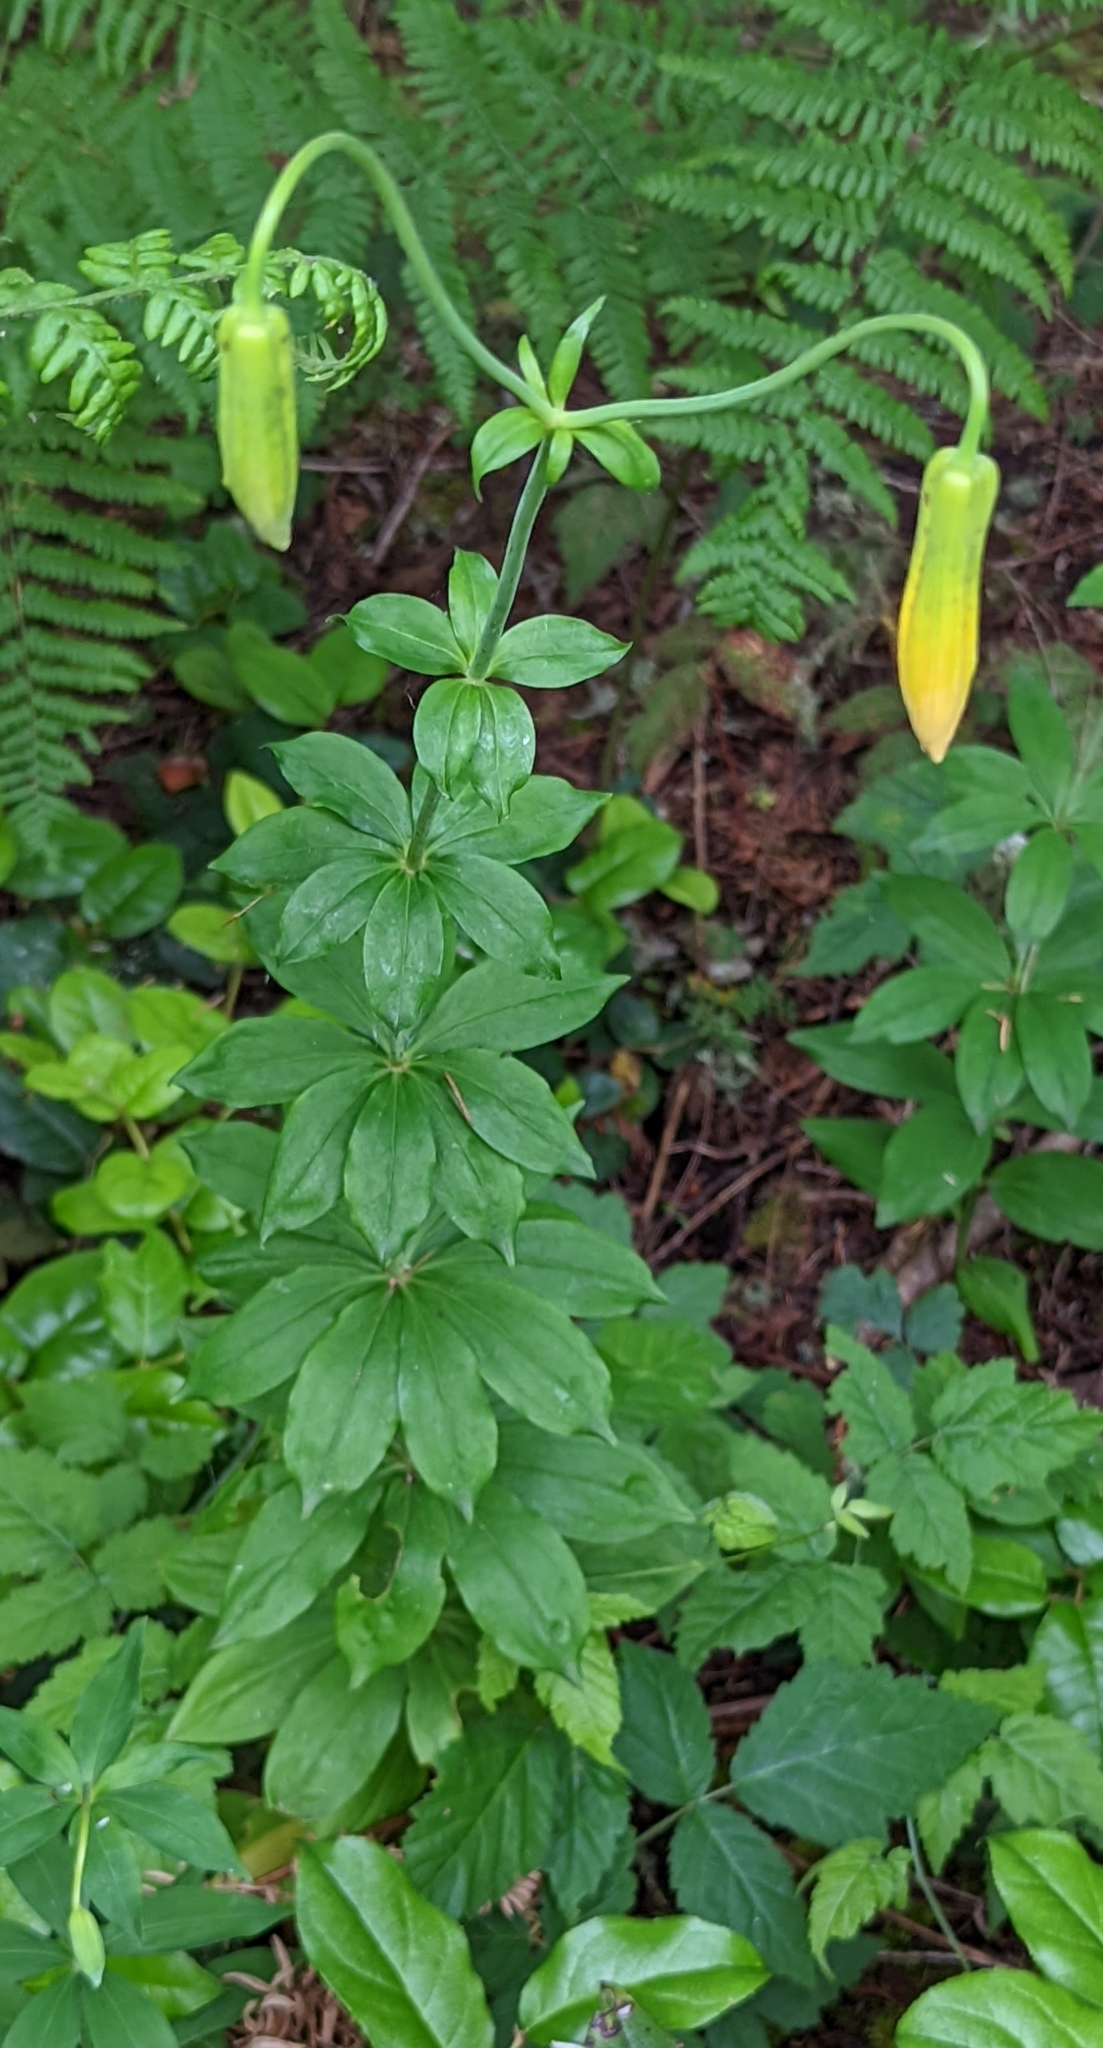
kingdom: Plantae
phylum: Tracheophyta
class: Liliopsida
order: Liliales
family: Liliaceae
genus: Lilium
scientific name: Lilium columbianum
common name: Columbia lily
